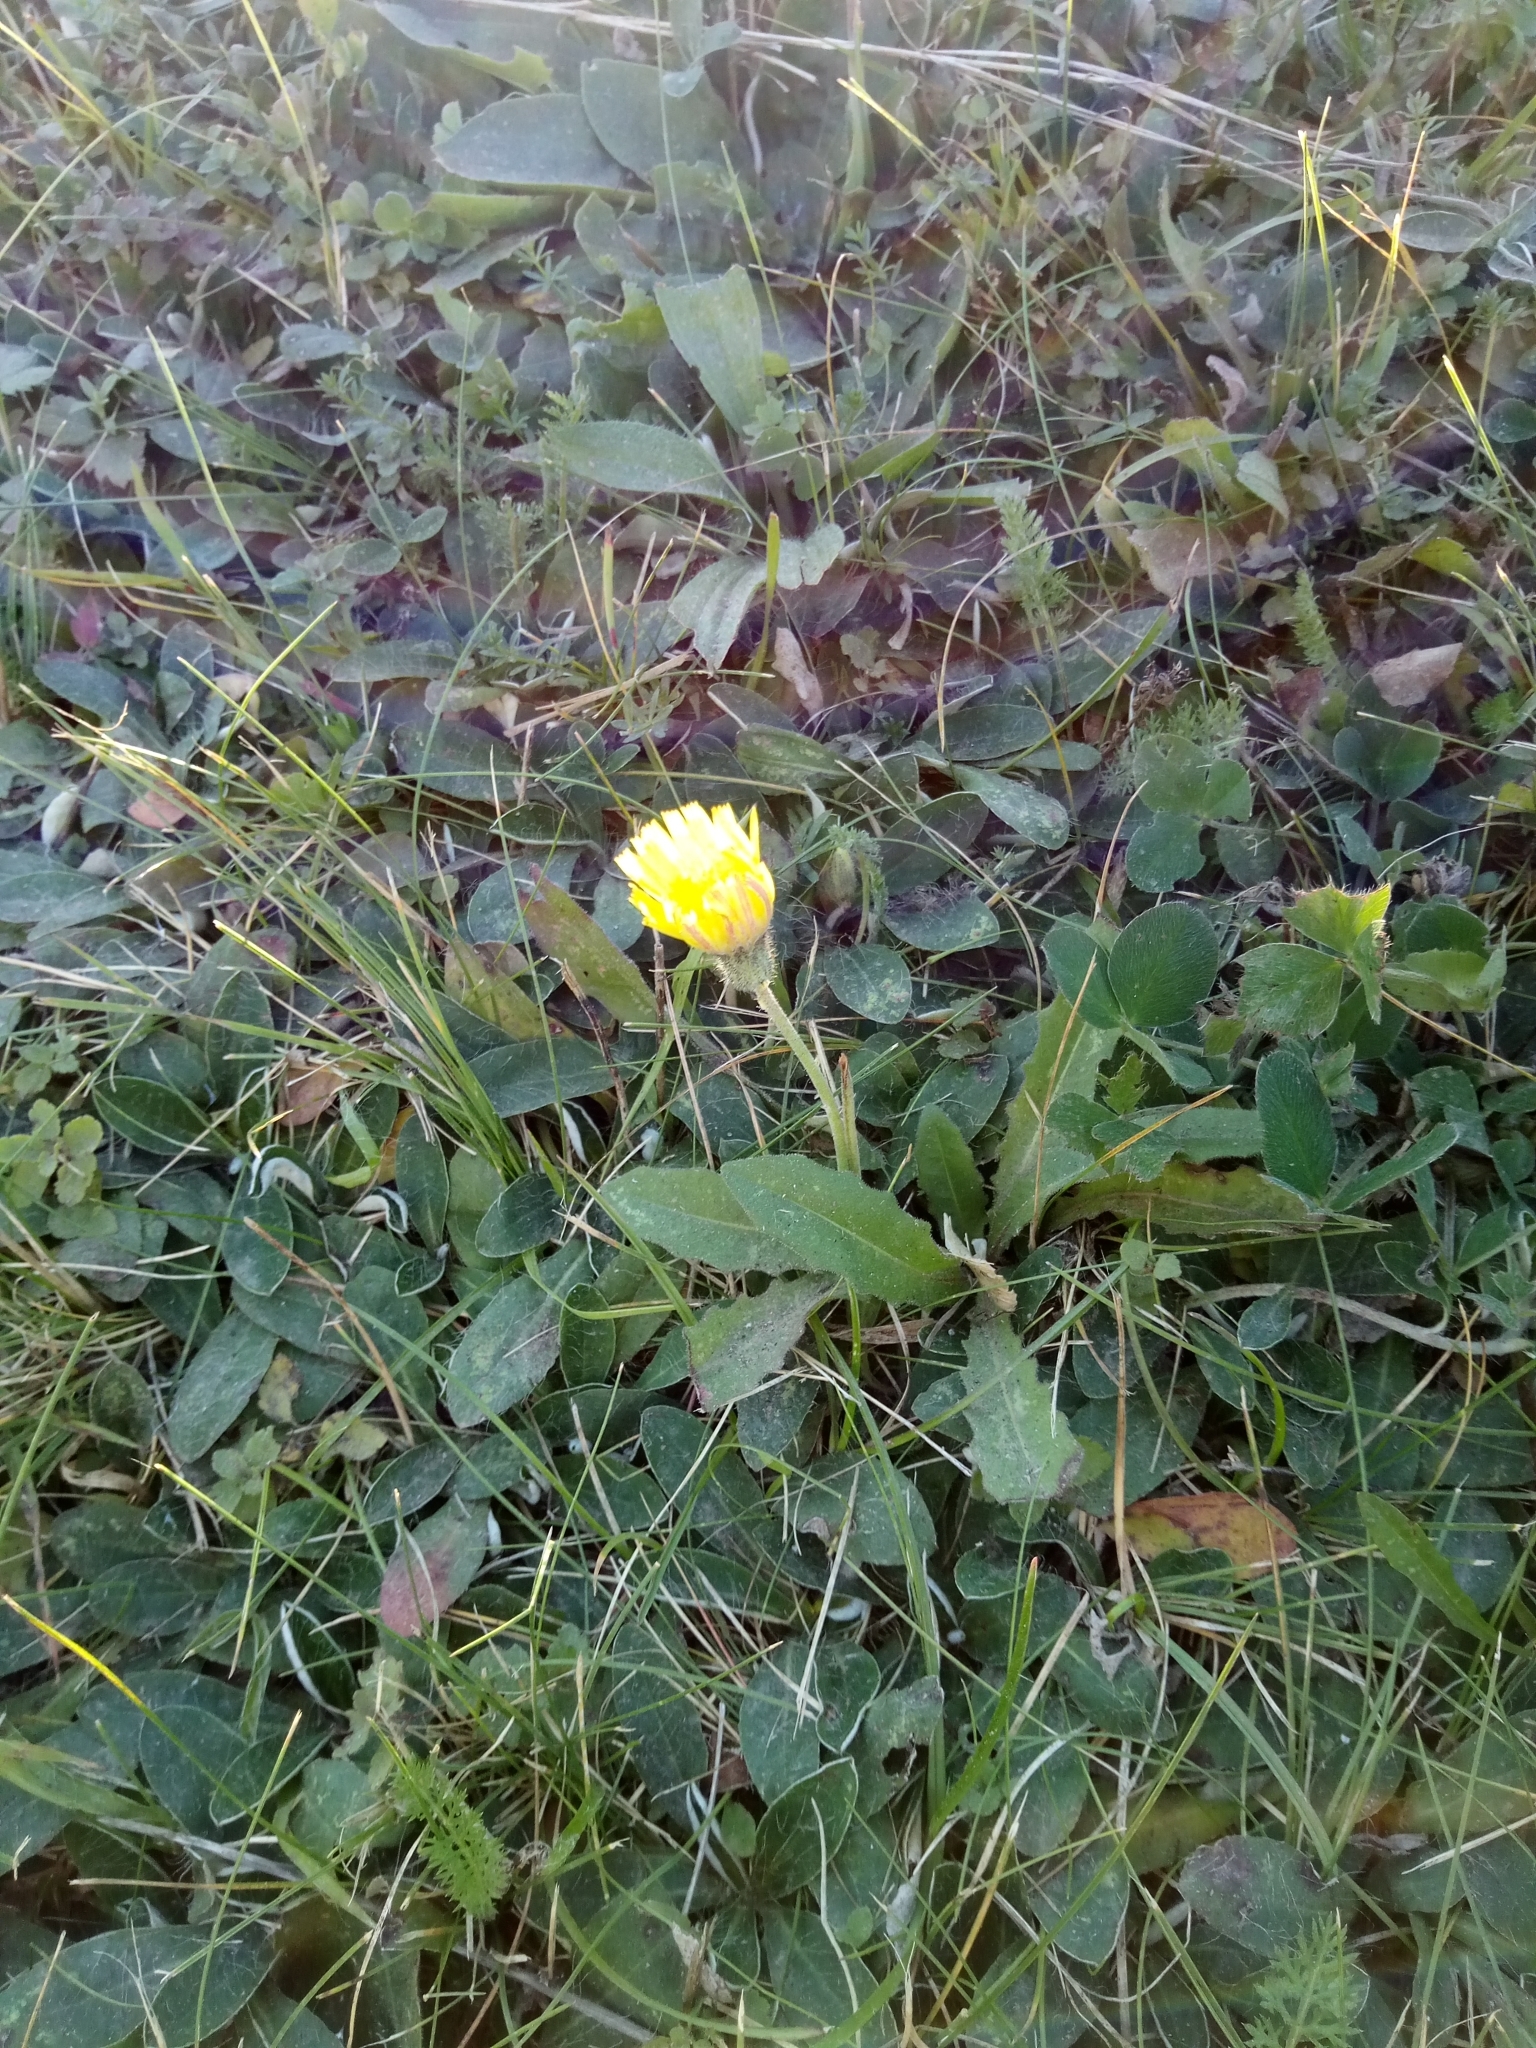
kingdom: Plantae
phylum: Tracheophyta
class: Magnoliopsida
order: Asterales
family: Asteraceae
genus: Pilosella
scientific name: Pilosella officinarum
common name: Mouse-ear hawkweed
